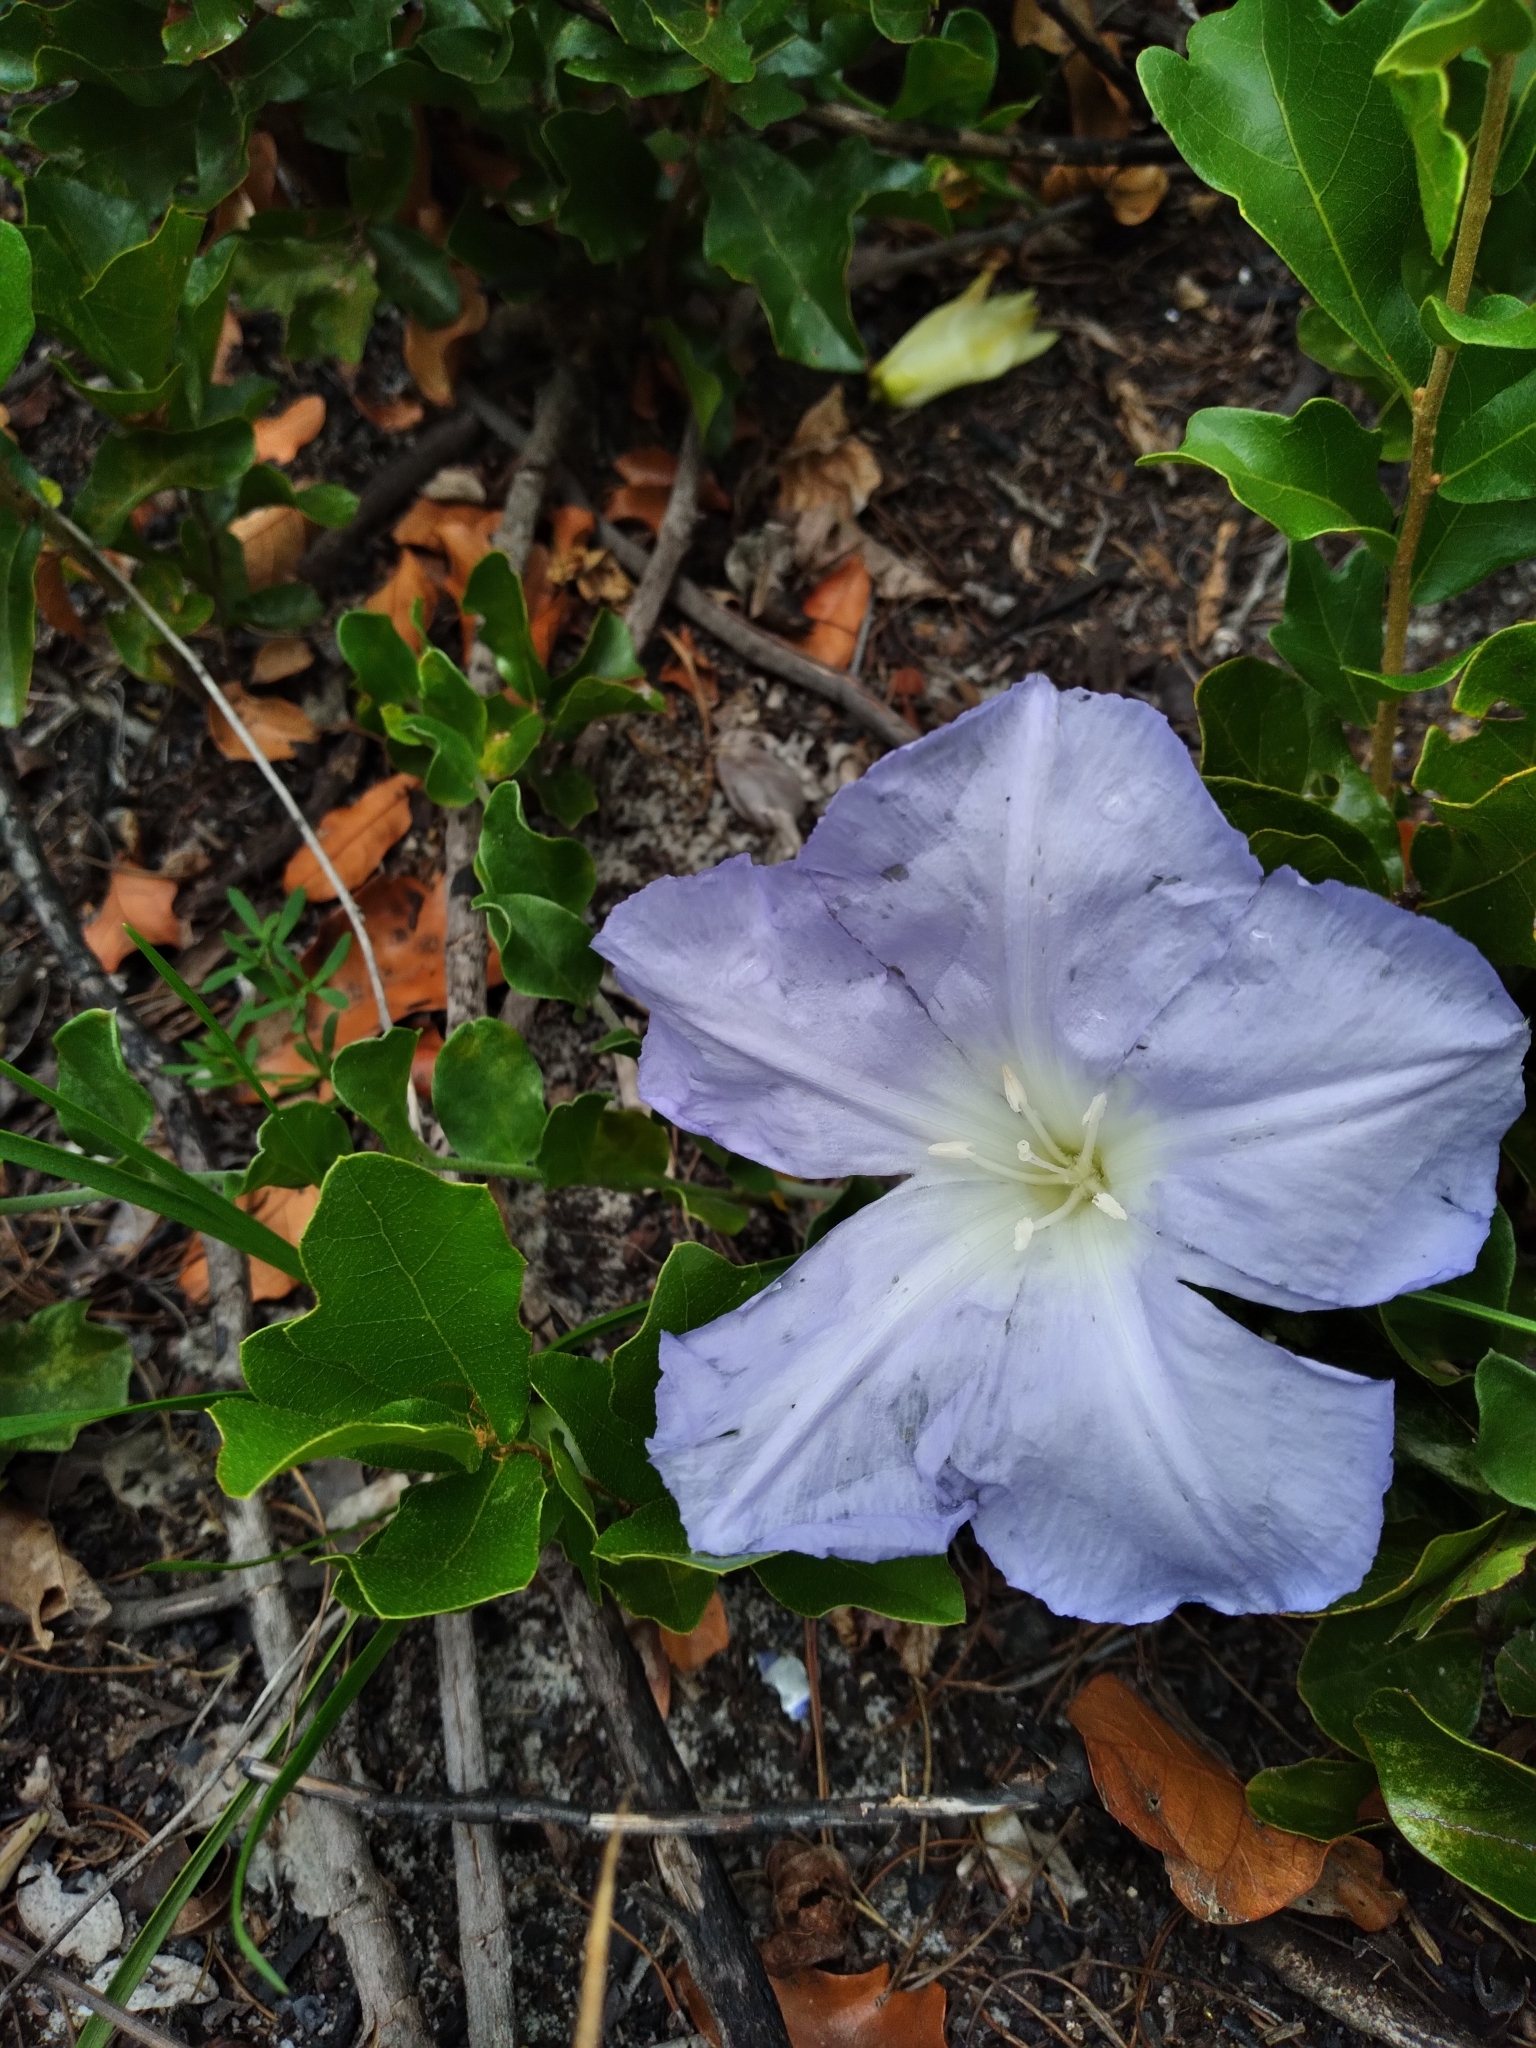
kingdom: Plantae
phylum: Tracheophyta
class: Magnoliopsida
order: Solanales
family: Convolvulaceae
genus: Bonamia
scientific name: Bonamia grandiflora
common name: Florida bonamia
